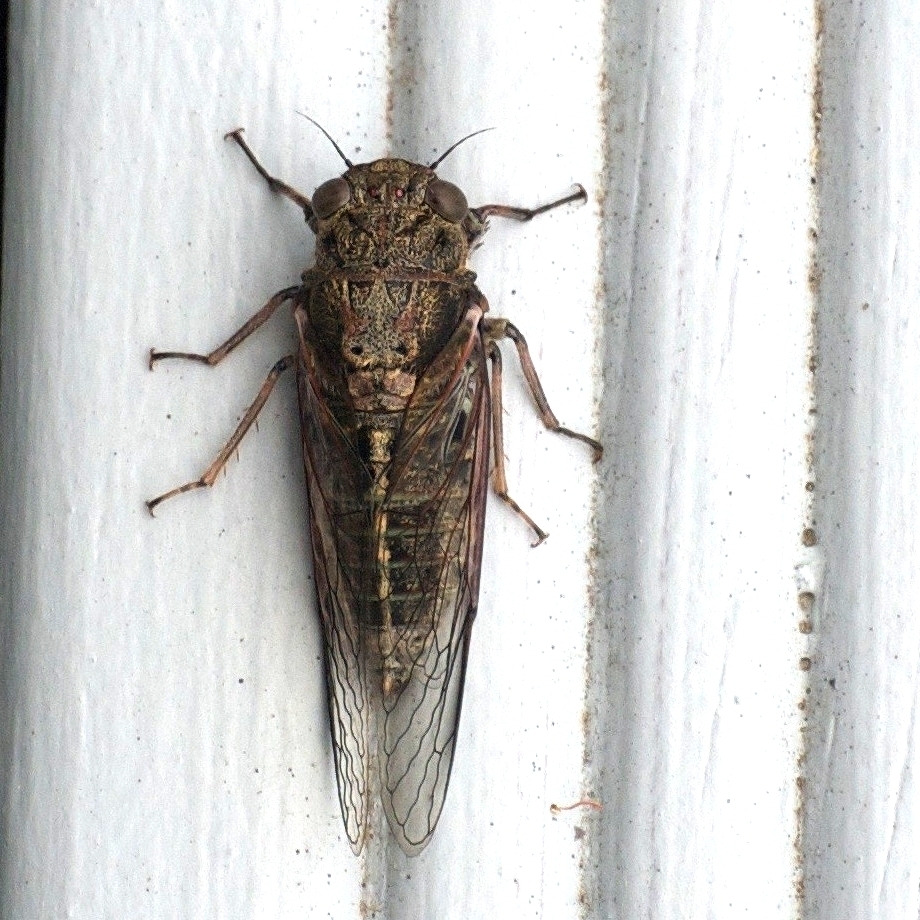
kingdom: Animalia
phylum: Arthropoda
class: Insecta
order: Hemiptera
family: Cicadidae
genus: Notopsalta
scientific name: Notopsalta sericea
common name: Clay bank cicada
